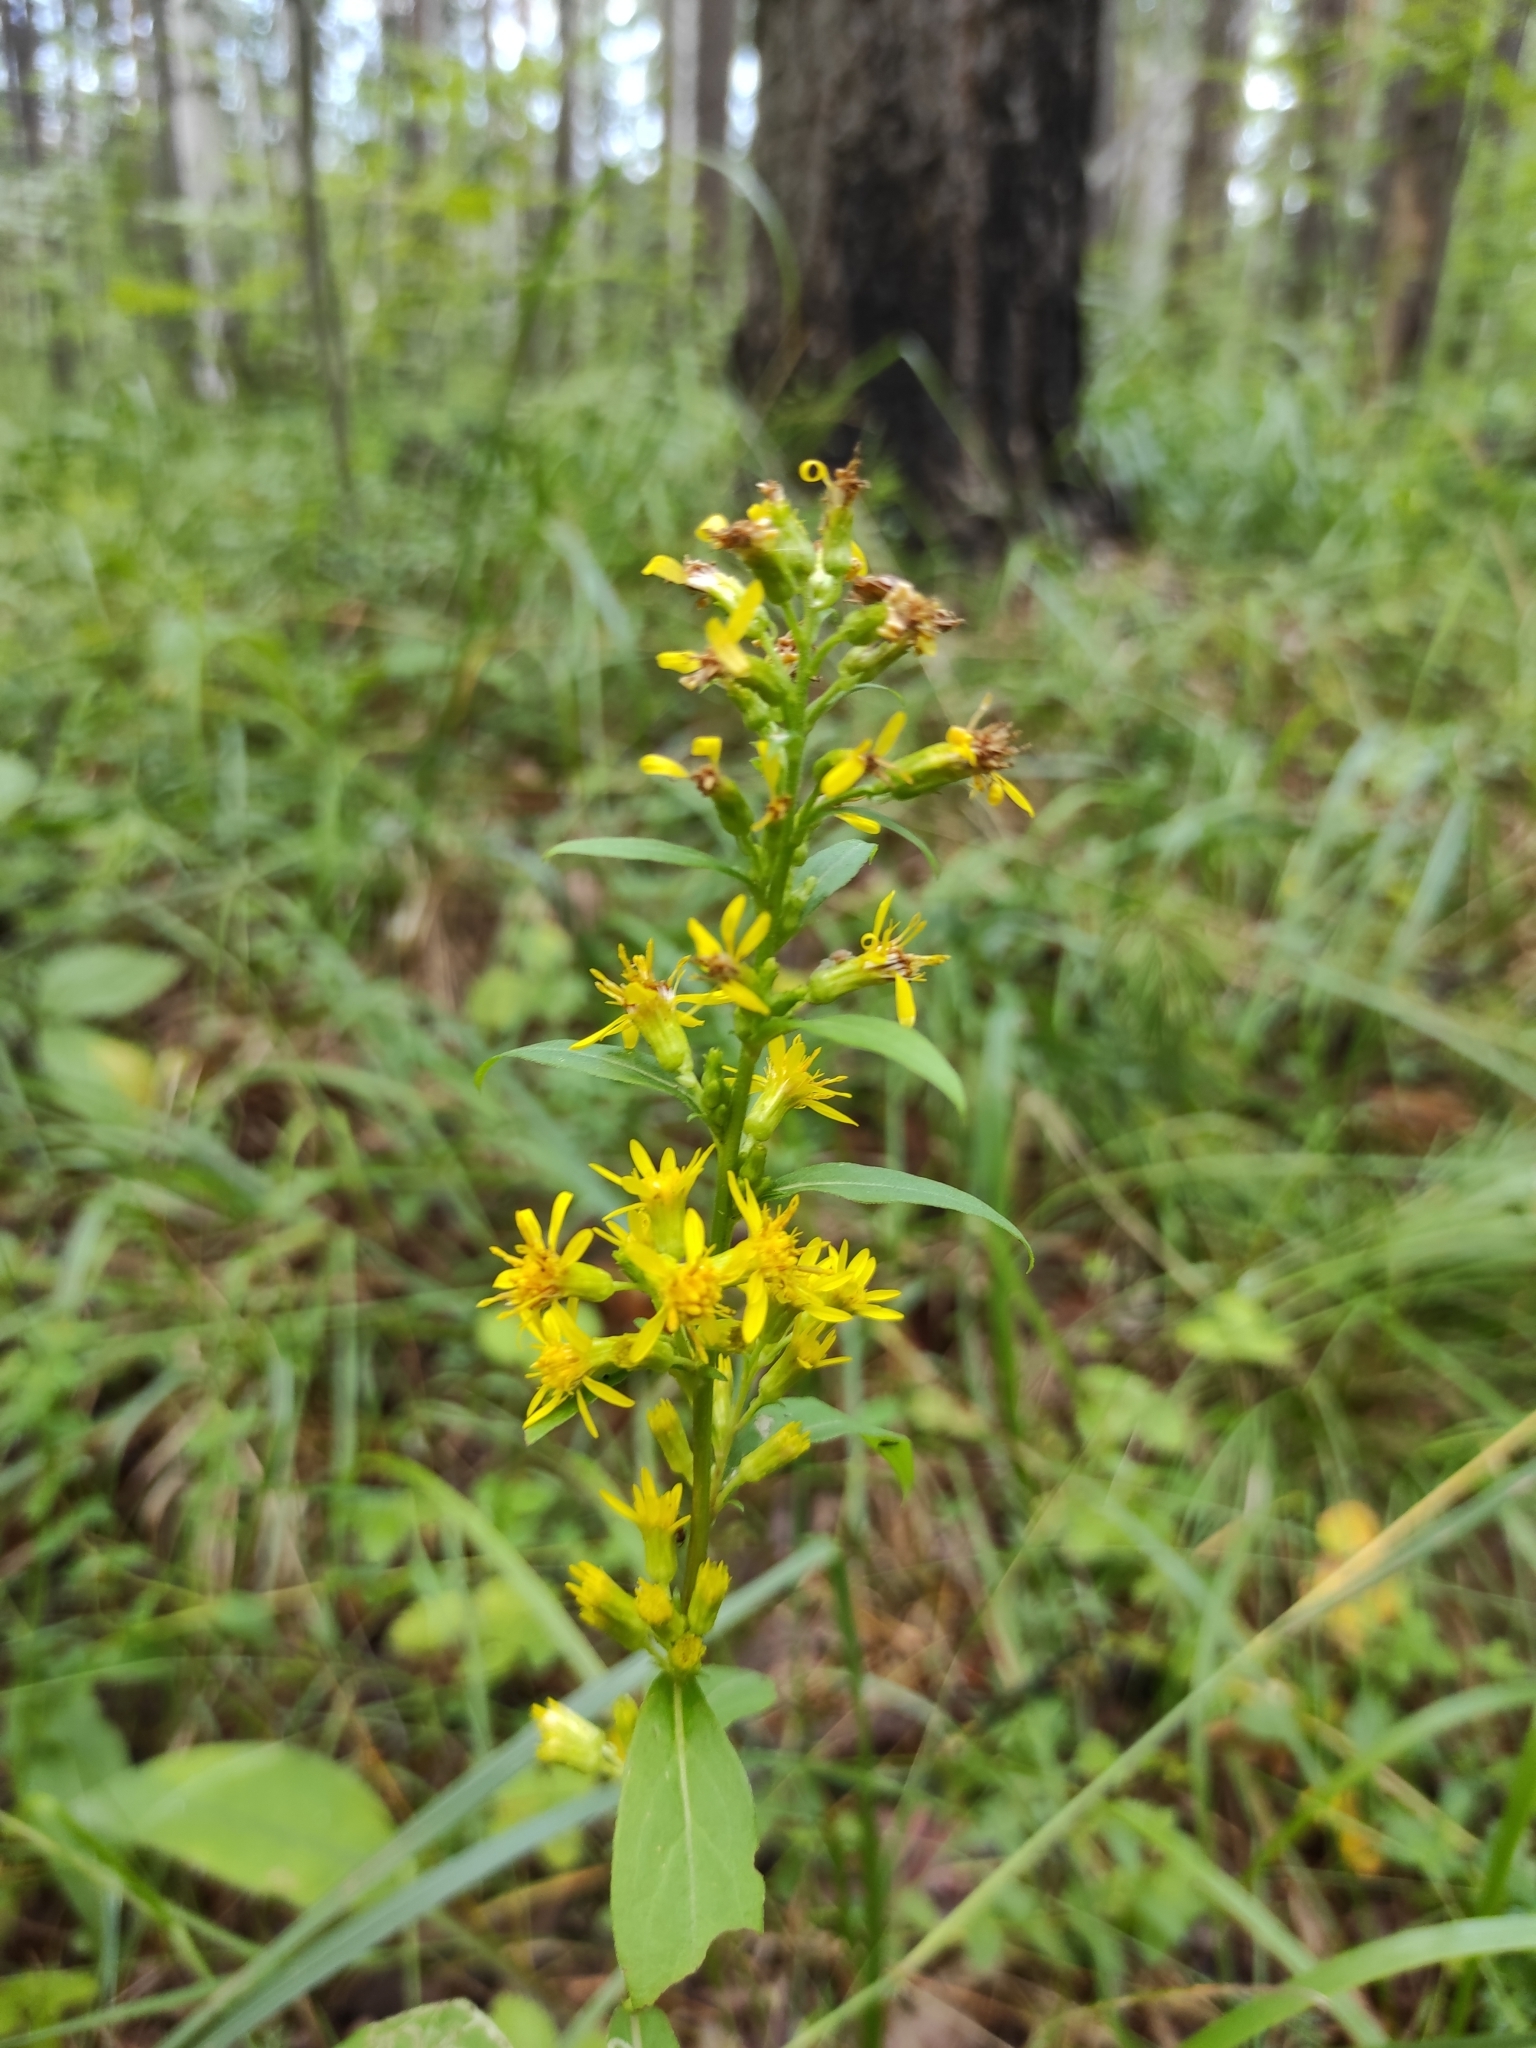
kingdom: Plantae
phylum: Tracheophyta
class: Magnoliopsida
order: Asterales
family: Asteraceae
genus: Solidago
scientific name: Solidago virgaurea
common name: Goldenrod
